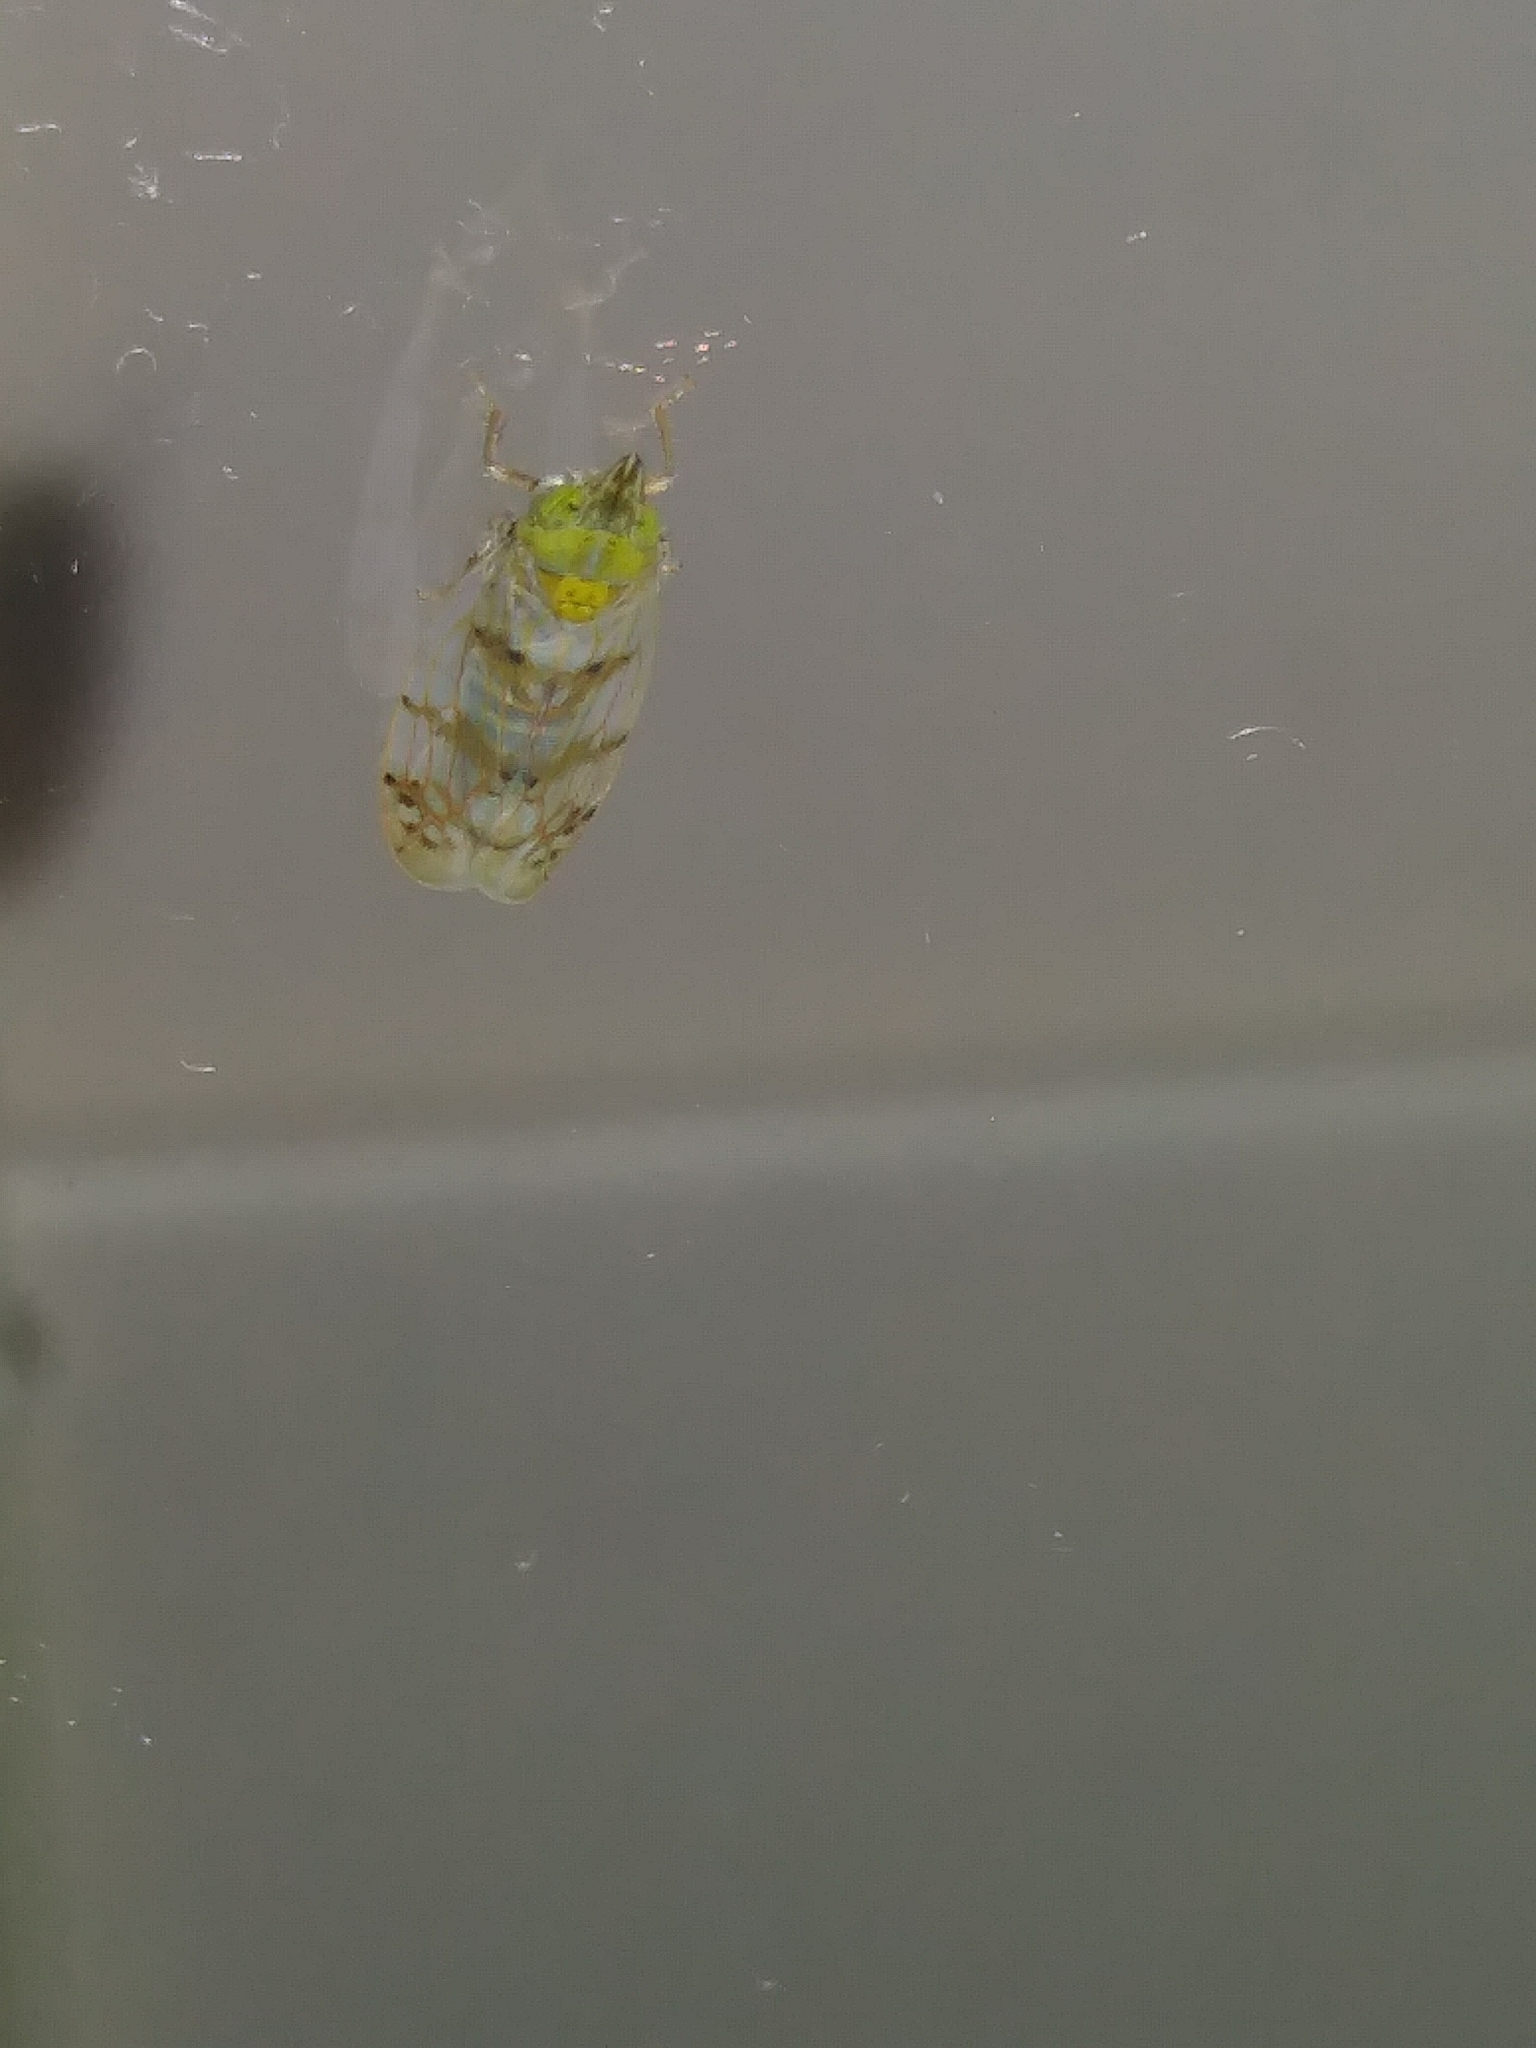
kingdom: Animalia
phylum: Arthropoda
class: Insecta
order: Hemiptera
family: Cicadellidae
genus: Japananus
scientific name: Japananus hyalinus
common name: The japanese maple leafhopper
